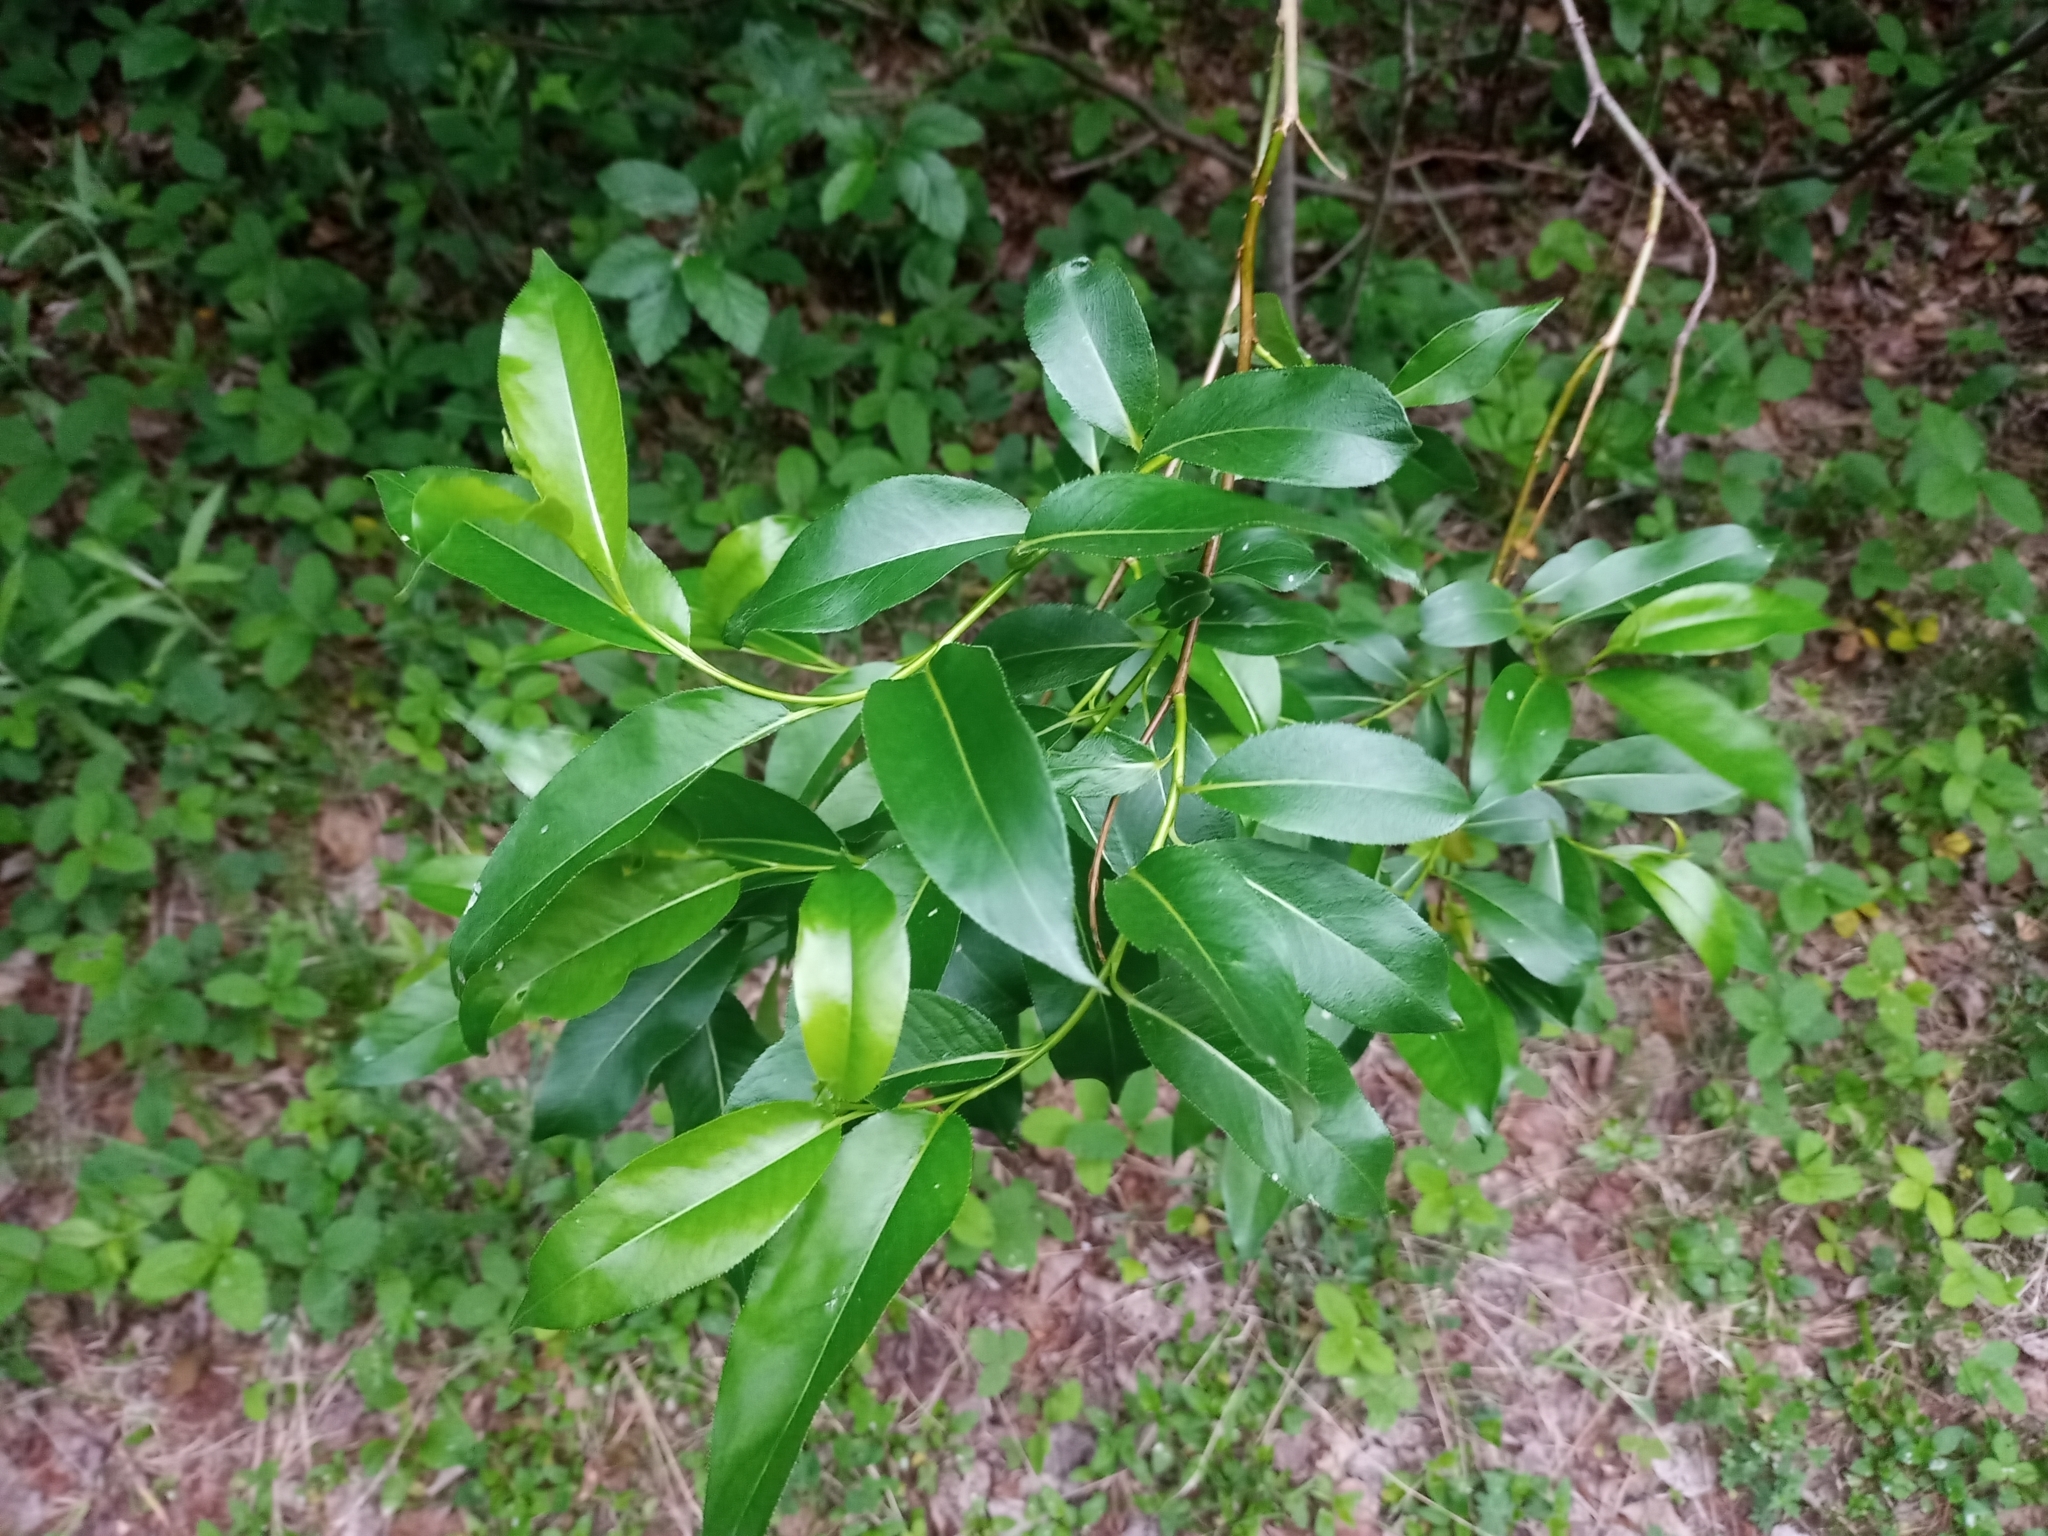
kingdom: Plantae
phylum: Tracheophyta
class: Magnoliopsida
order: Malpighiales
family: Salicaceae
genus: Salix
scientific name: Salix lucida
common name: Shining willow
